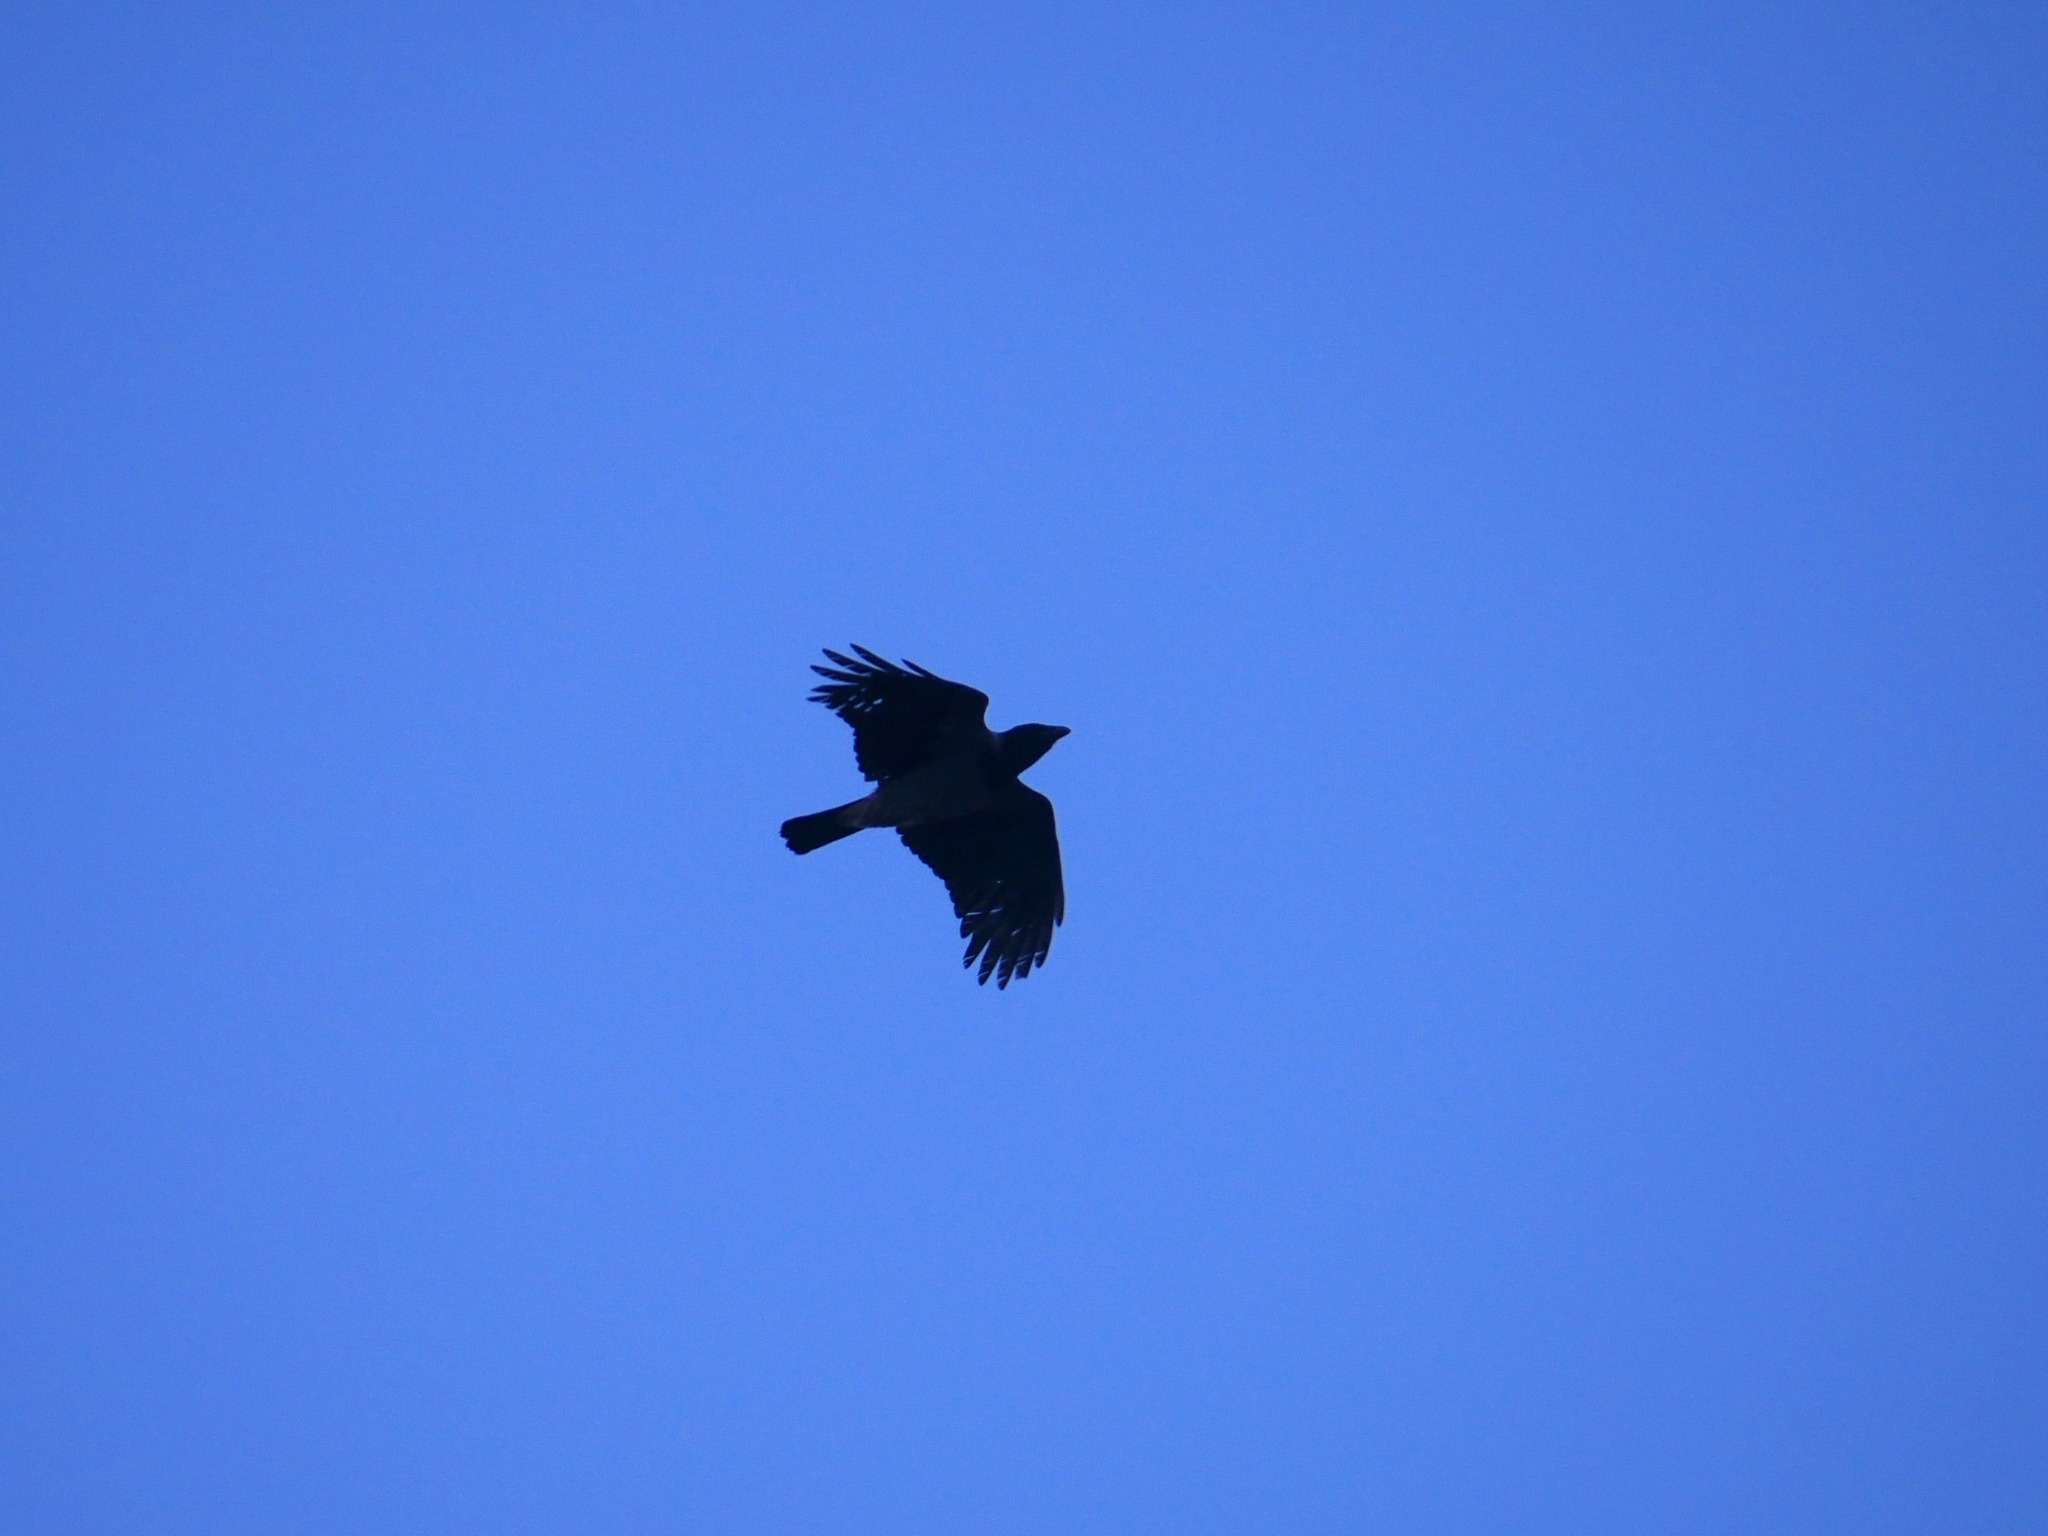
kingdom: Animalia
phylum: Chordata
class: Aves
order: Passeriformes
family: Corvidae
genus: Corvus
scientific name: Corvus cornix
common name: Hooded crow
